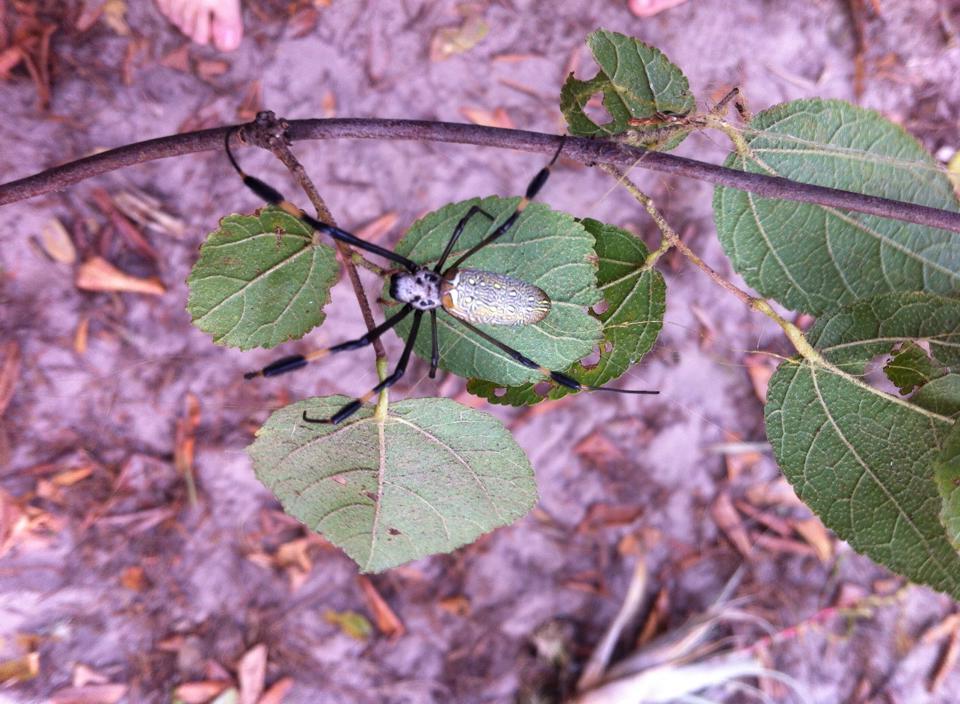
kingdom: Animalia
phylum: Arthropoda
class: Arachnida
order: Araneae
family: Araneidae
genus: Trichonephila
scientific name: Trichonephila clavipes
